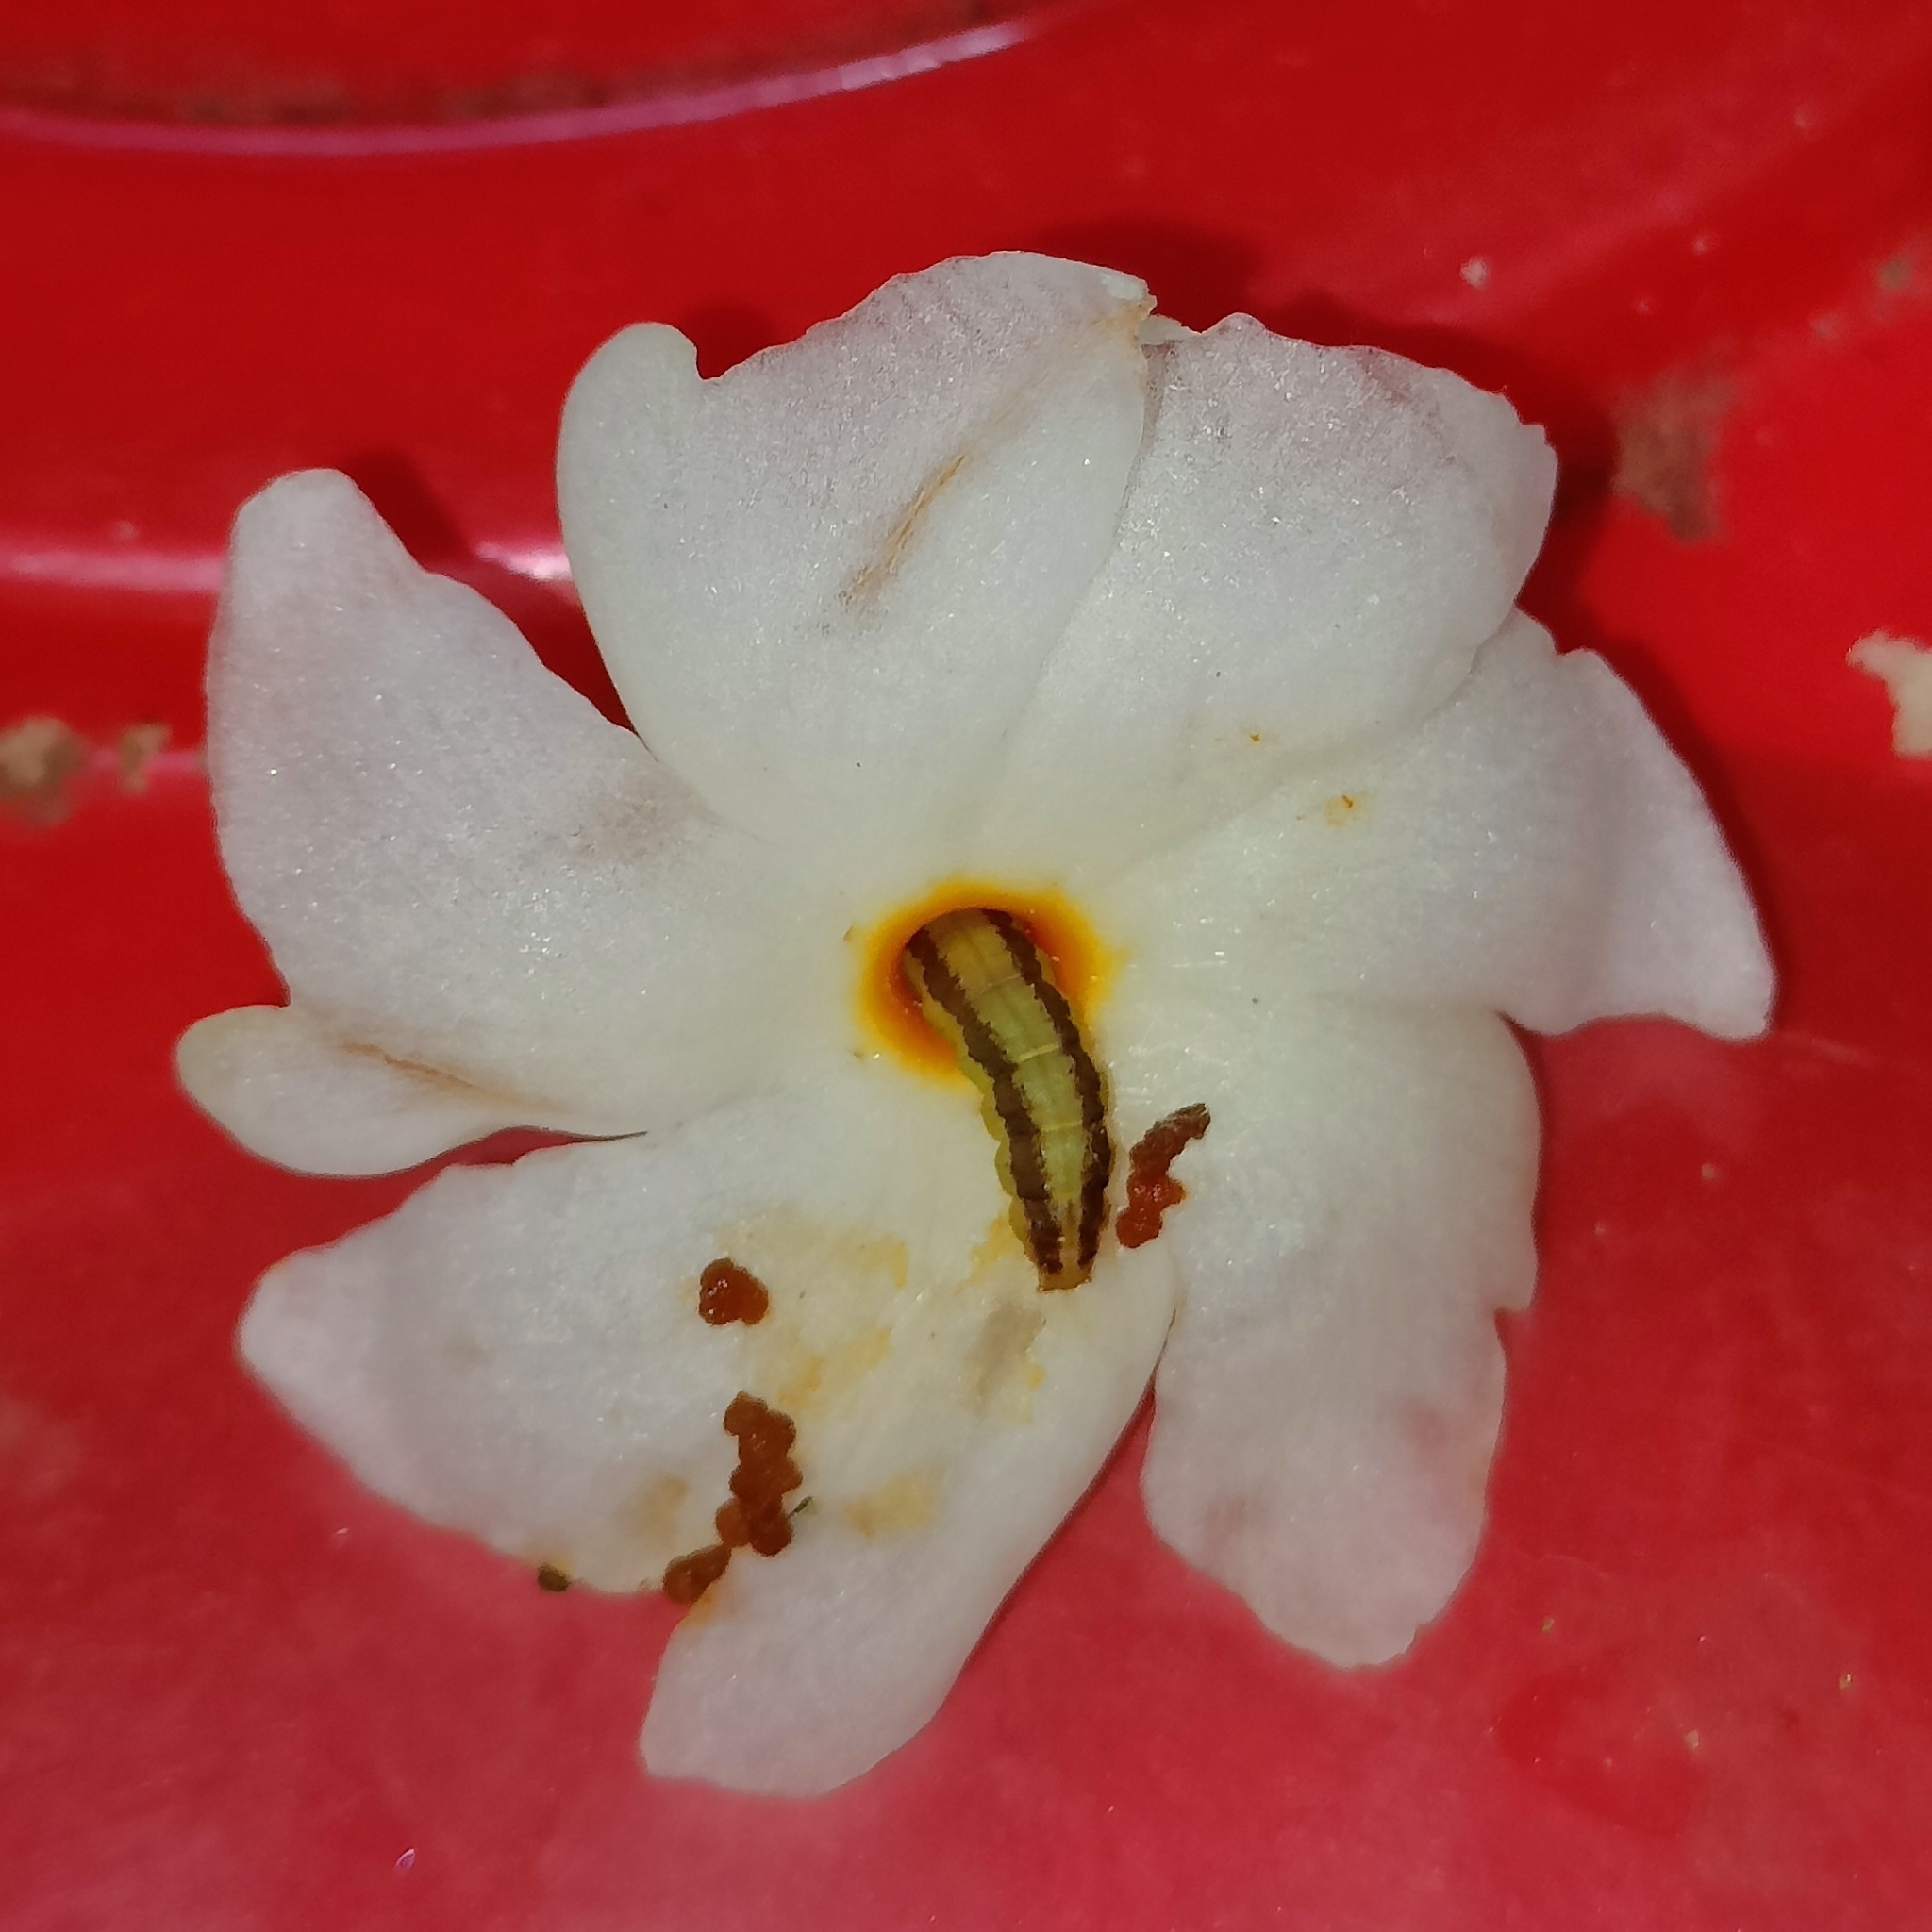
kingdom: Plantae
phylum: Tracheophyta
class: Magnoliopsida
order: Lamiales
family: Oleaceae
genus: Nyctanthes
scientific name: Nyctanthes arbor-tristis
